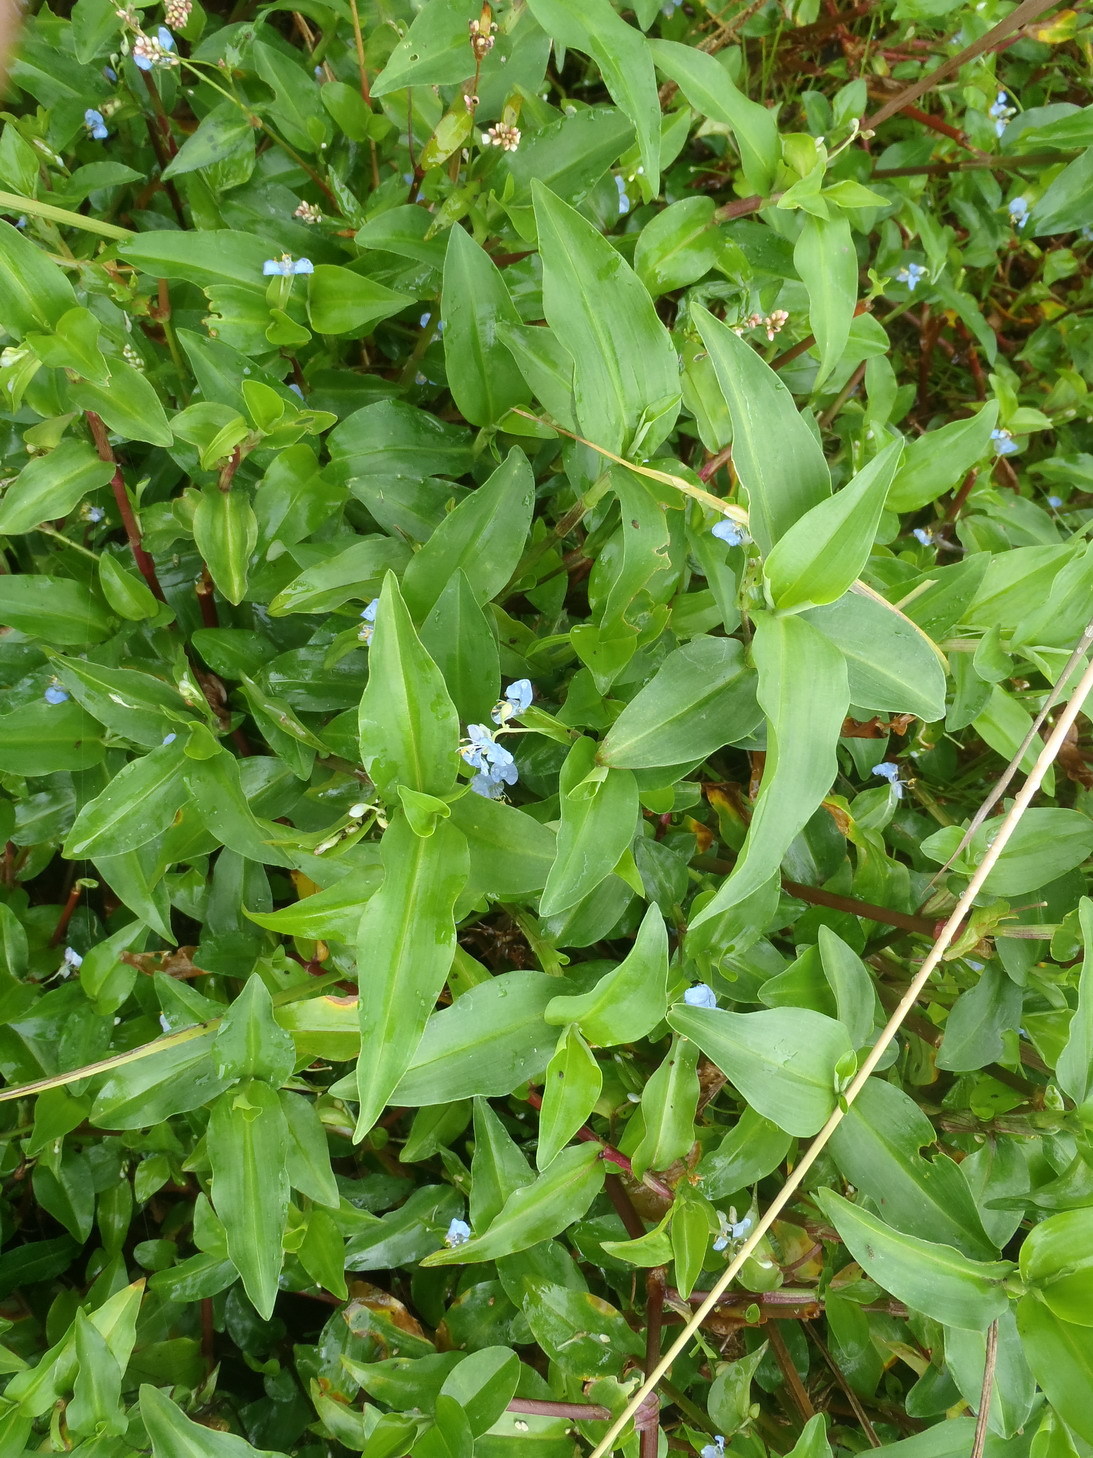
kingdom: Plantae
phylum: Tracheophyta
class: Liliopsida
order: Commelinales
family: Commelinaceae
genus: Commelina
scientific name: Commelina benghalensis
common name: Jio
